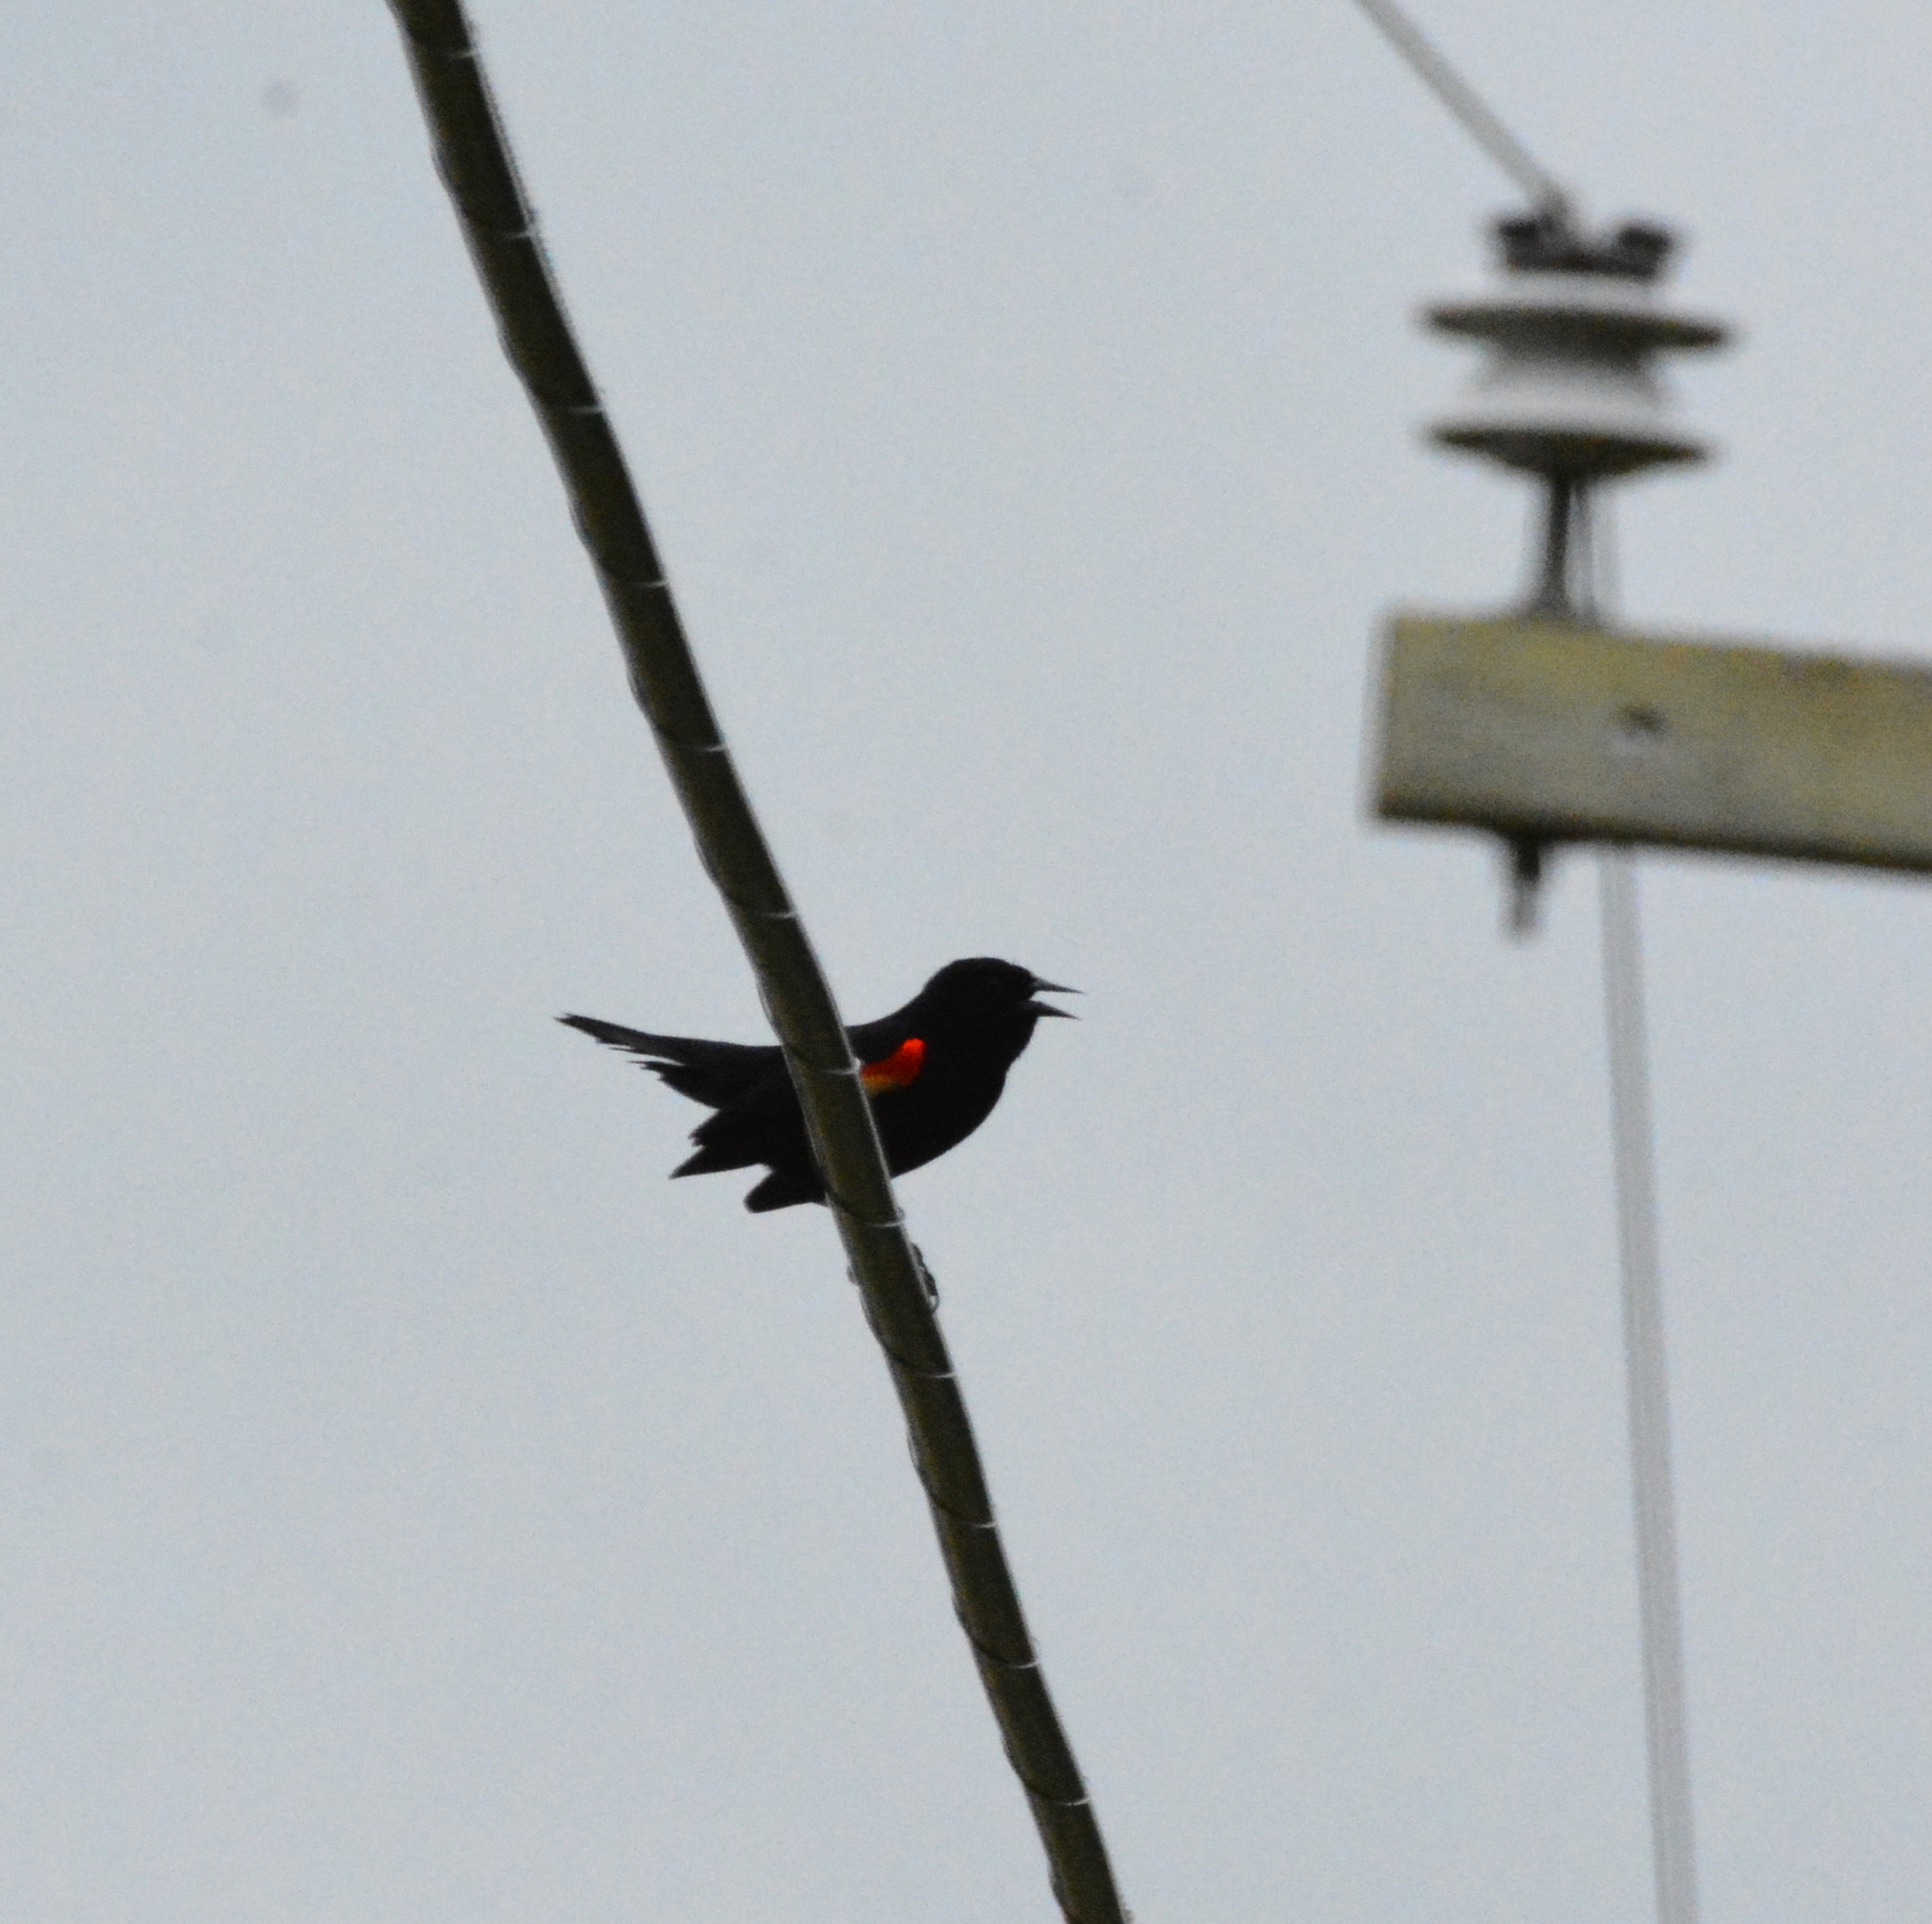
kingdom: Animalia
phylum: Chordata
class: Aves
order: Passeriformes
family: Icteridae
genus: Agelaius
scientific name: Agelaius phoeniceus
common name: Red-winged blackbird
